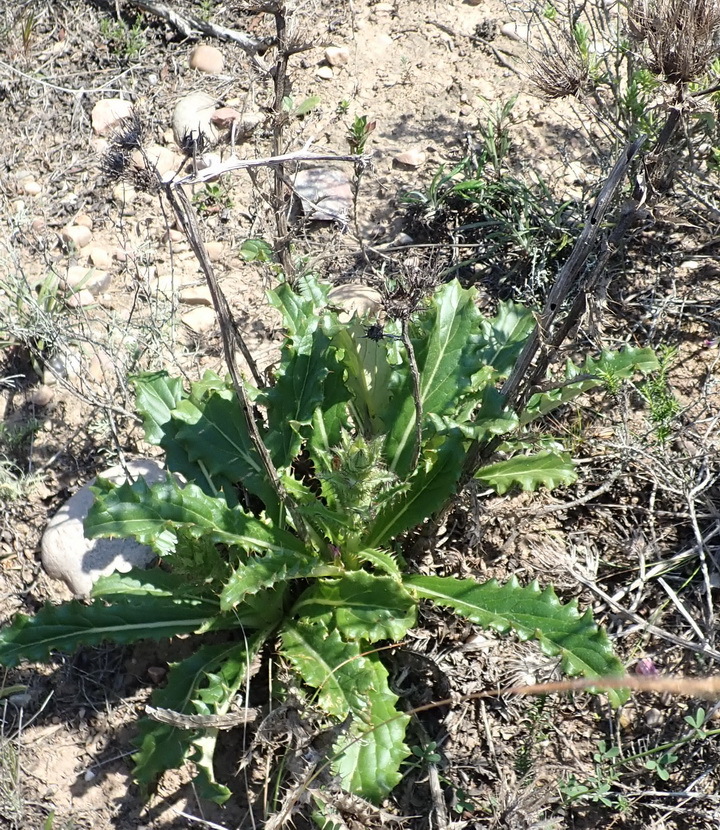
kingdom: Plantae
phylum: Tracheophyta
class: Magnoliopsida
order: Asterales
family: Asteraceae
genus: Berkheya
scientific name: Berkheya carlinoides
